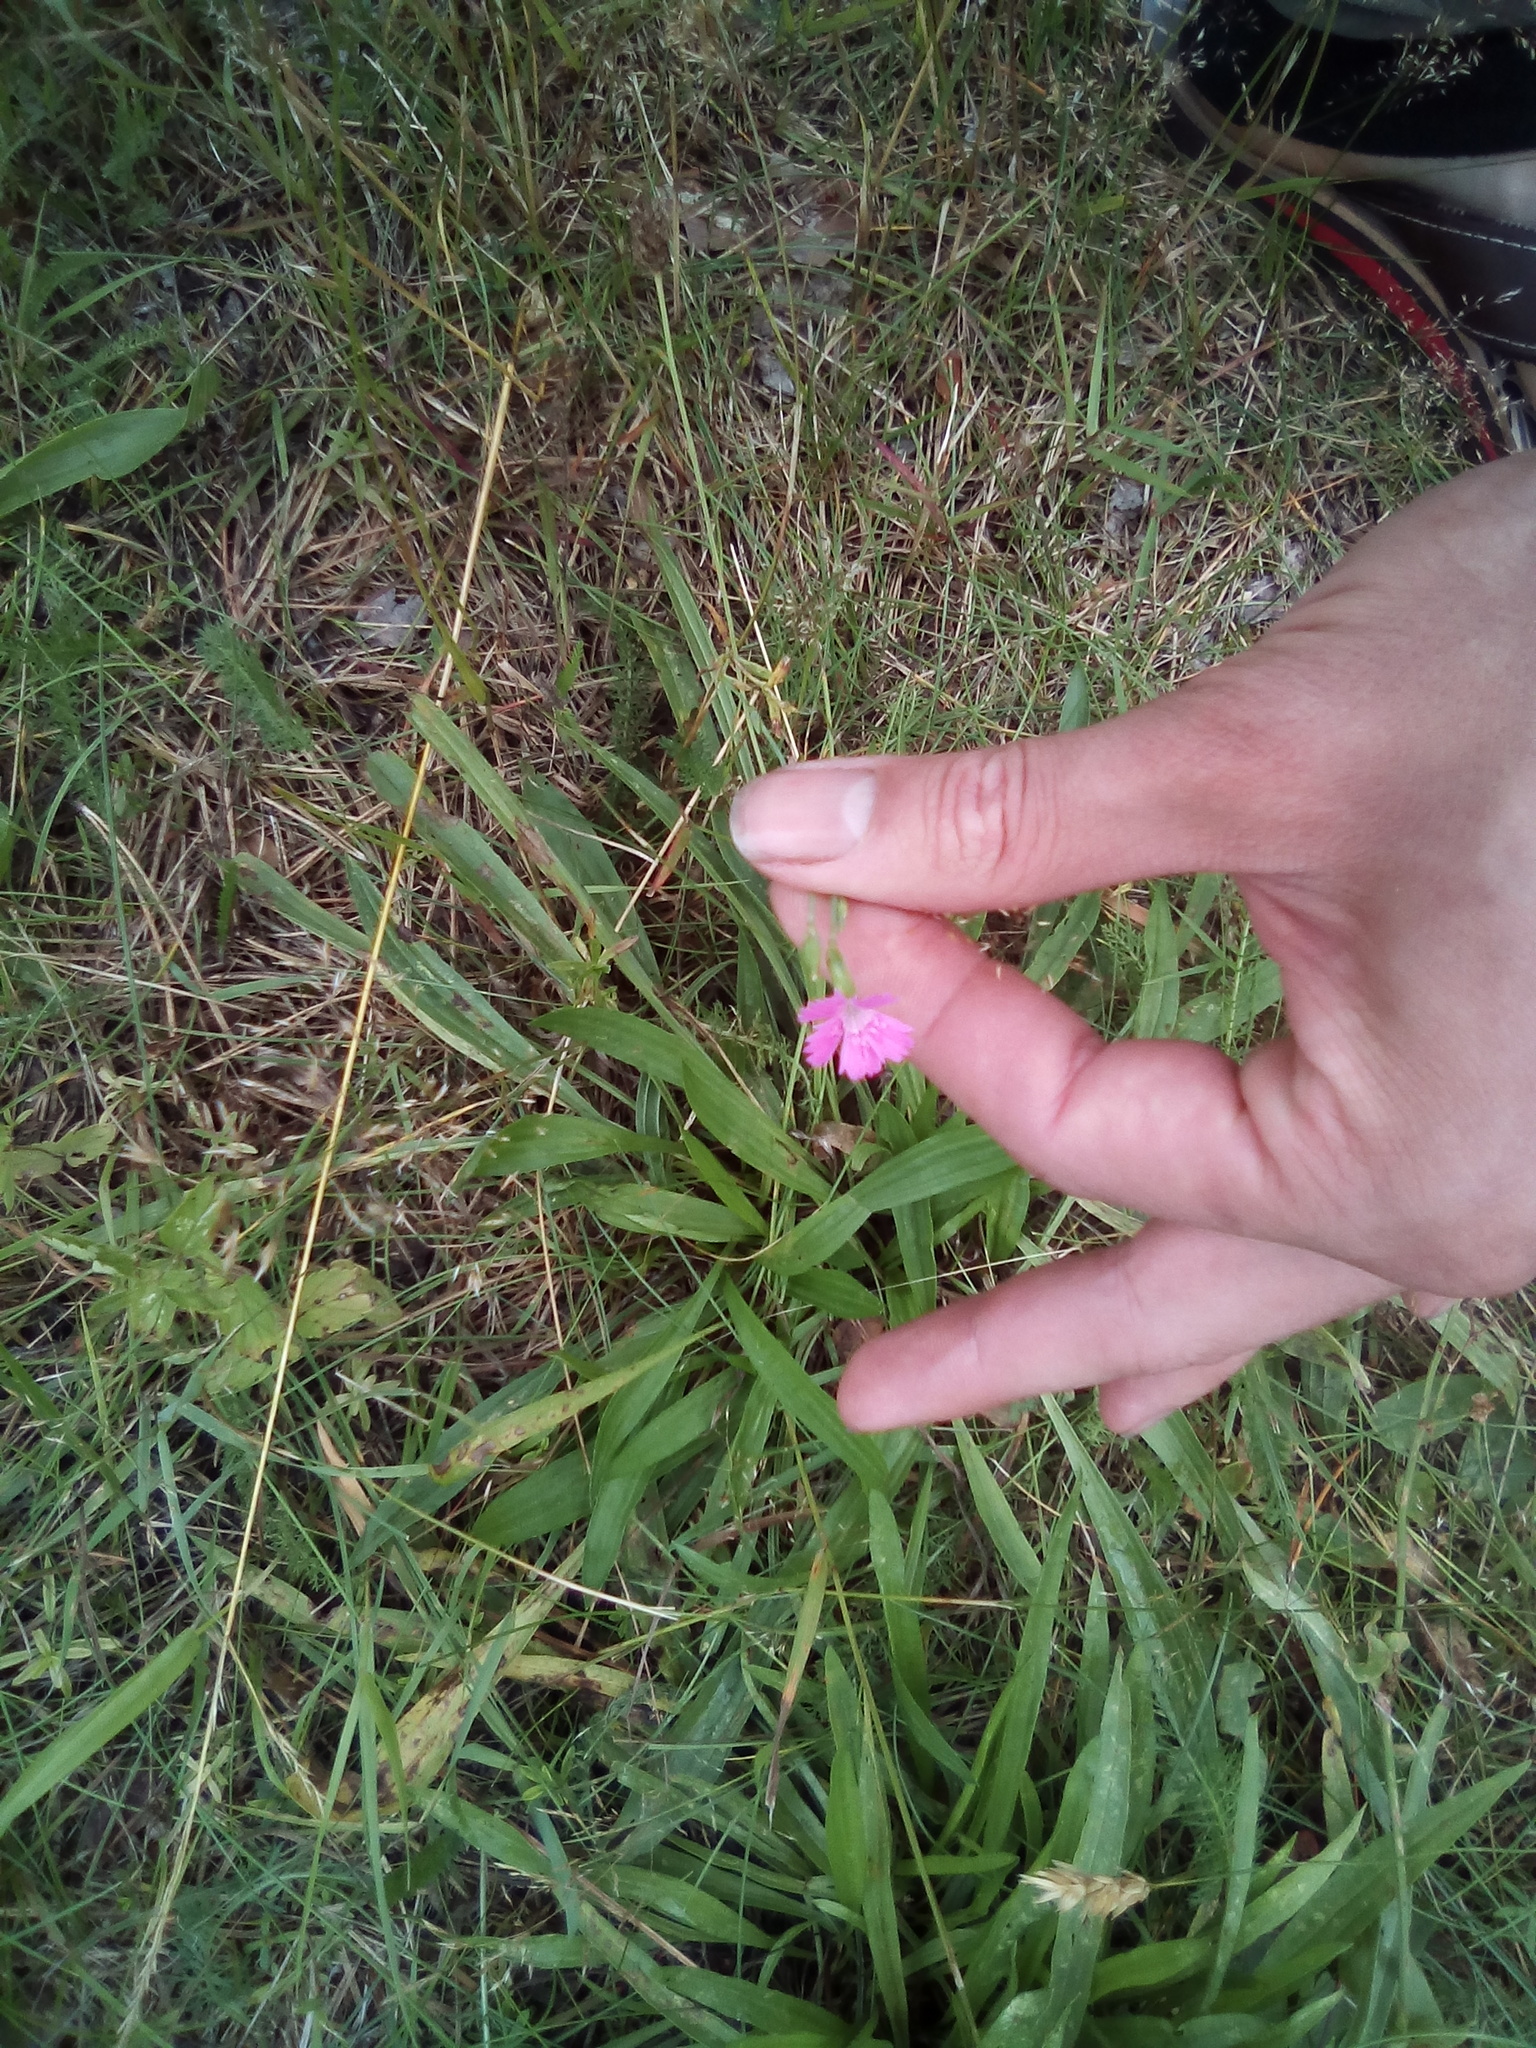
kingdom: Plantae
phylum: Tracheophyta
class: Magnoliopsida
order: Caryophyllales
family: Caryophyllaceae
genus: Dianthus
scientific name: Dianthus deltoides
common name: Maiden pink
